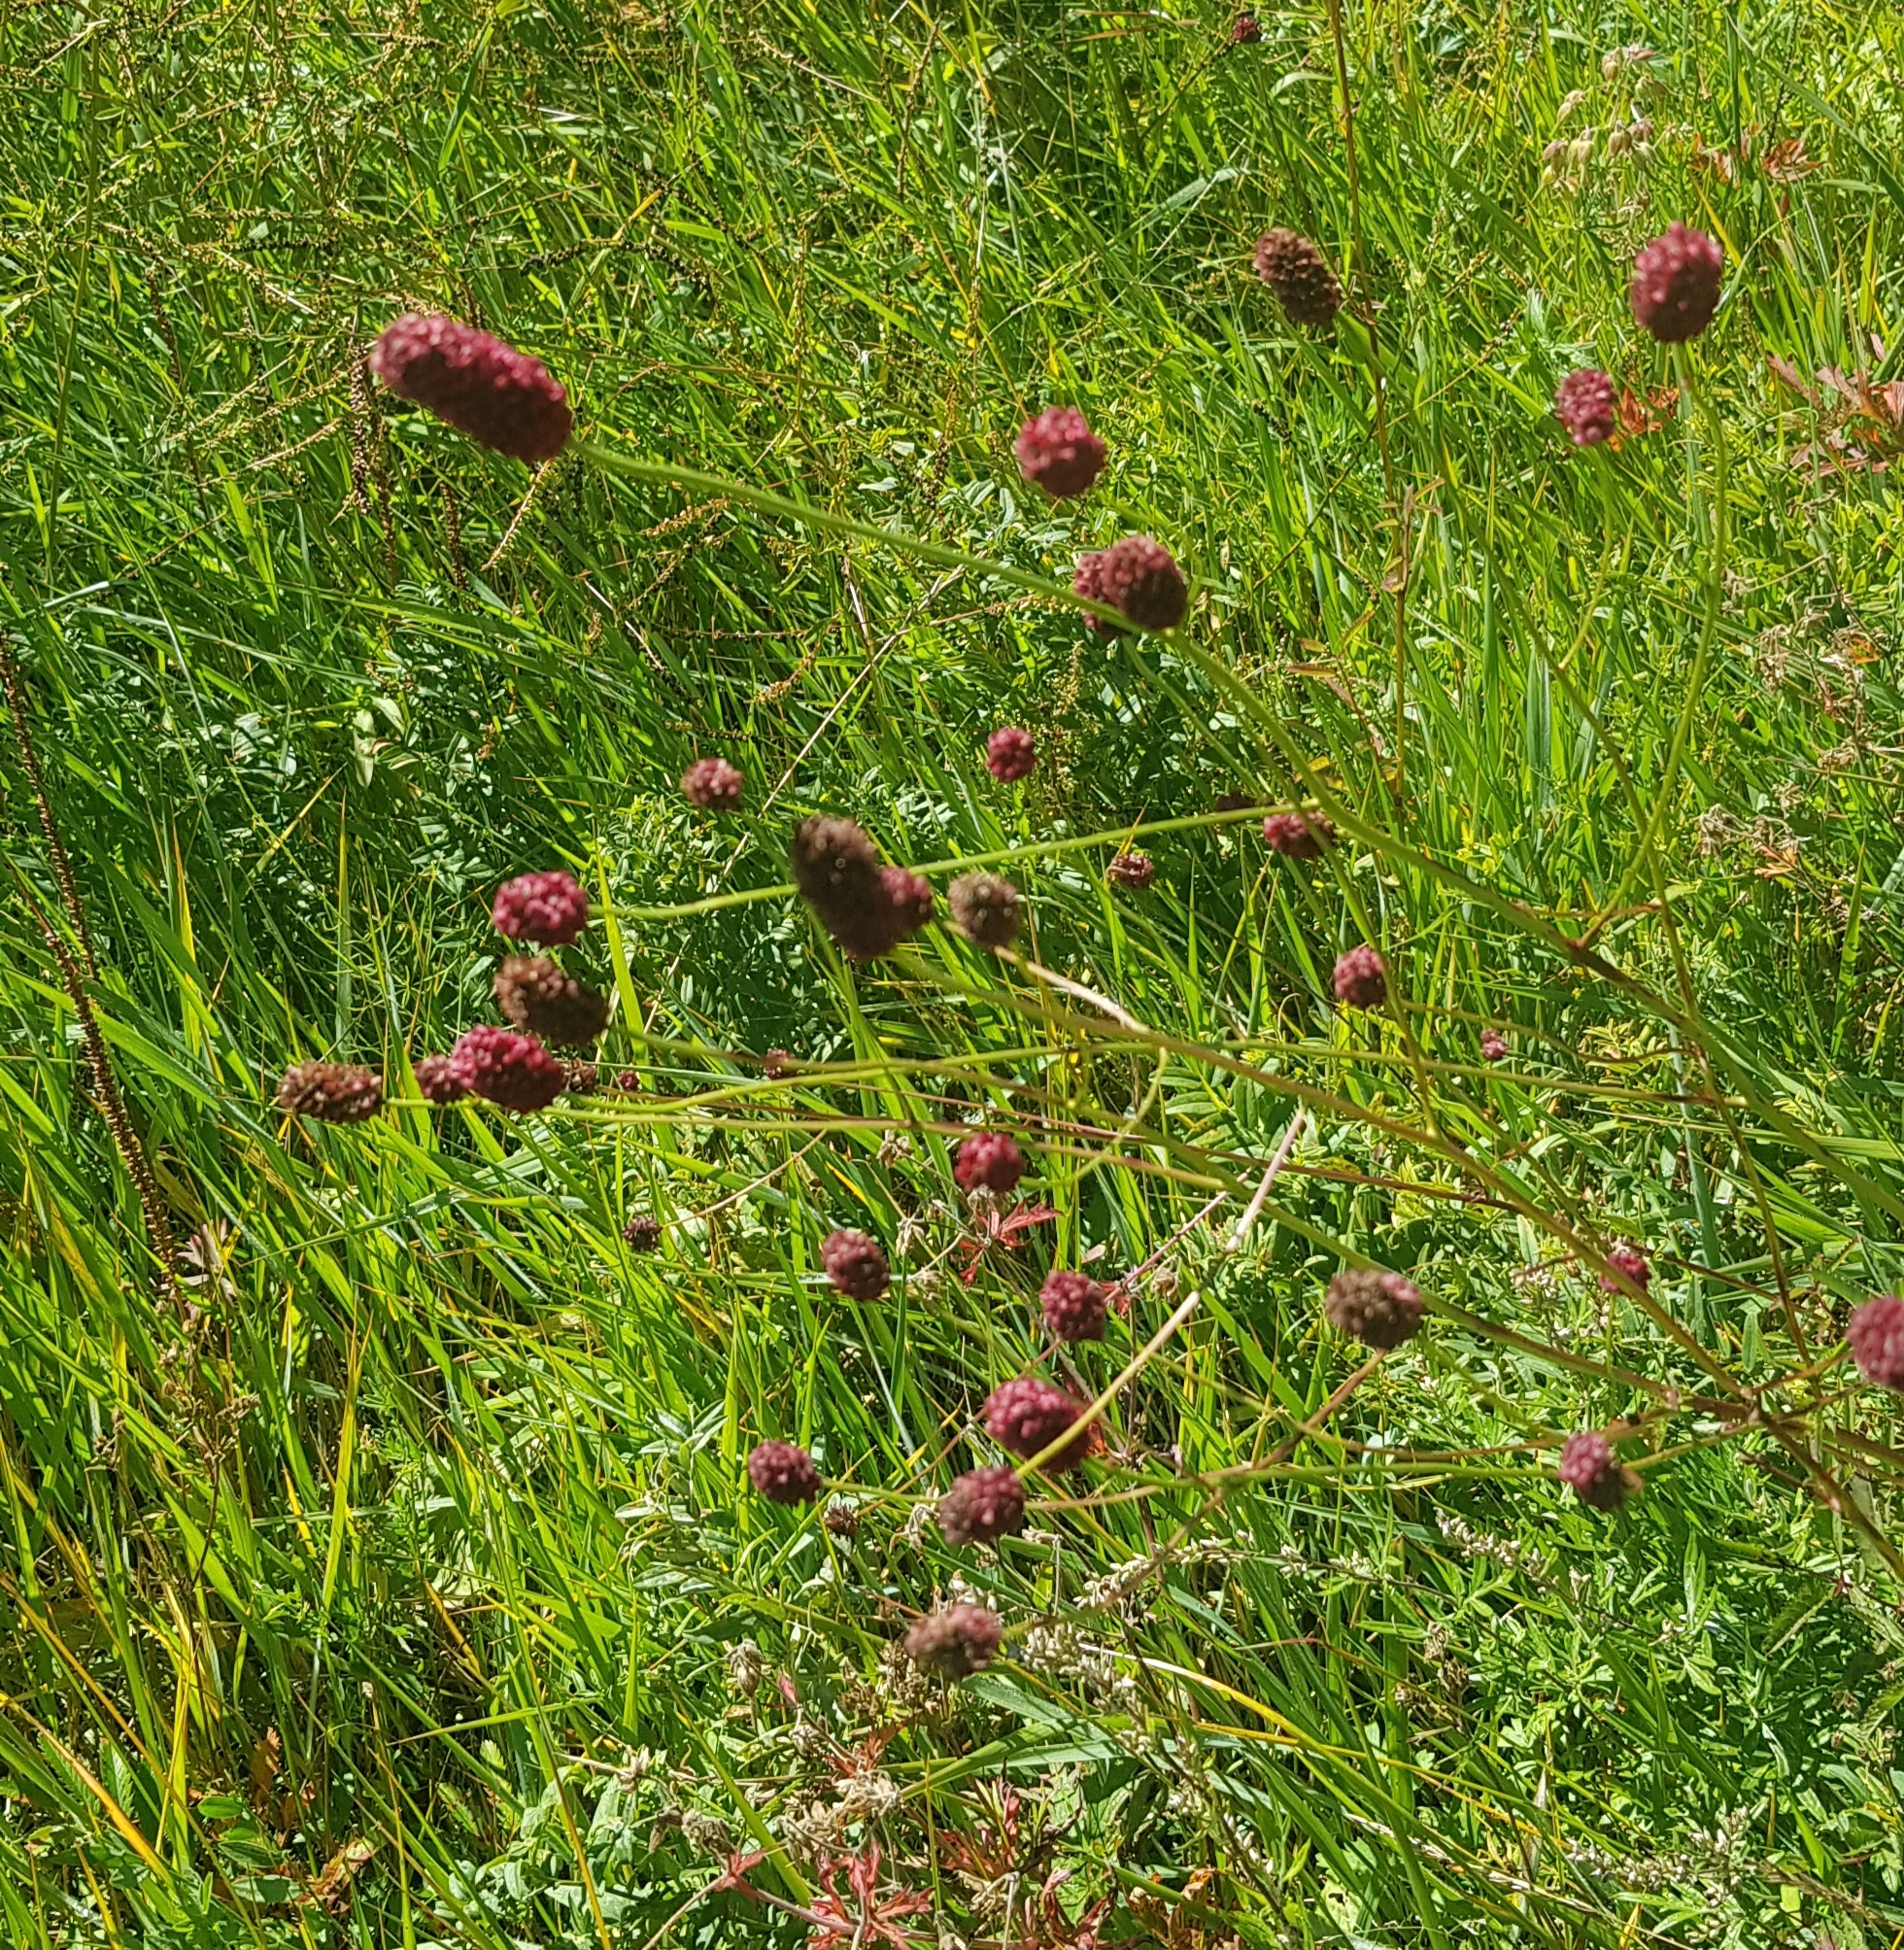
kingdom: Plantae
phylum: Tracheophyta
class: Magnoliopsida
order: Rosales
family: Rosaceae
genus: Sanguisorba
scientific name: Sanguisorba officinalis
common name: Great burnet
